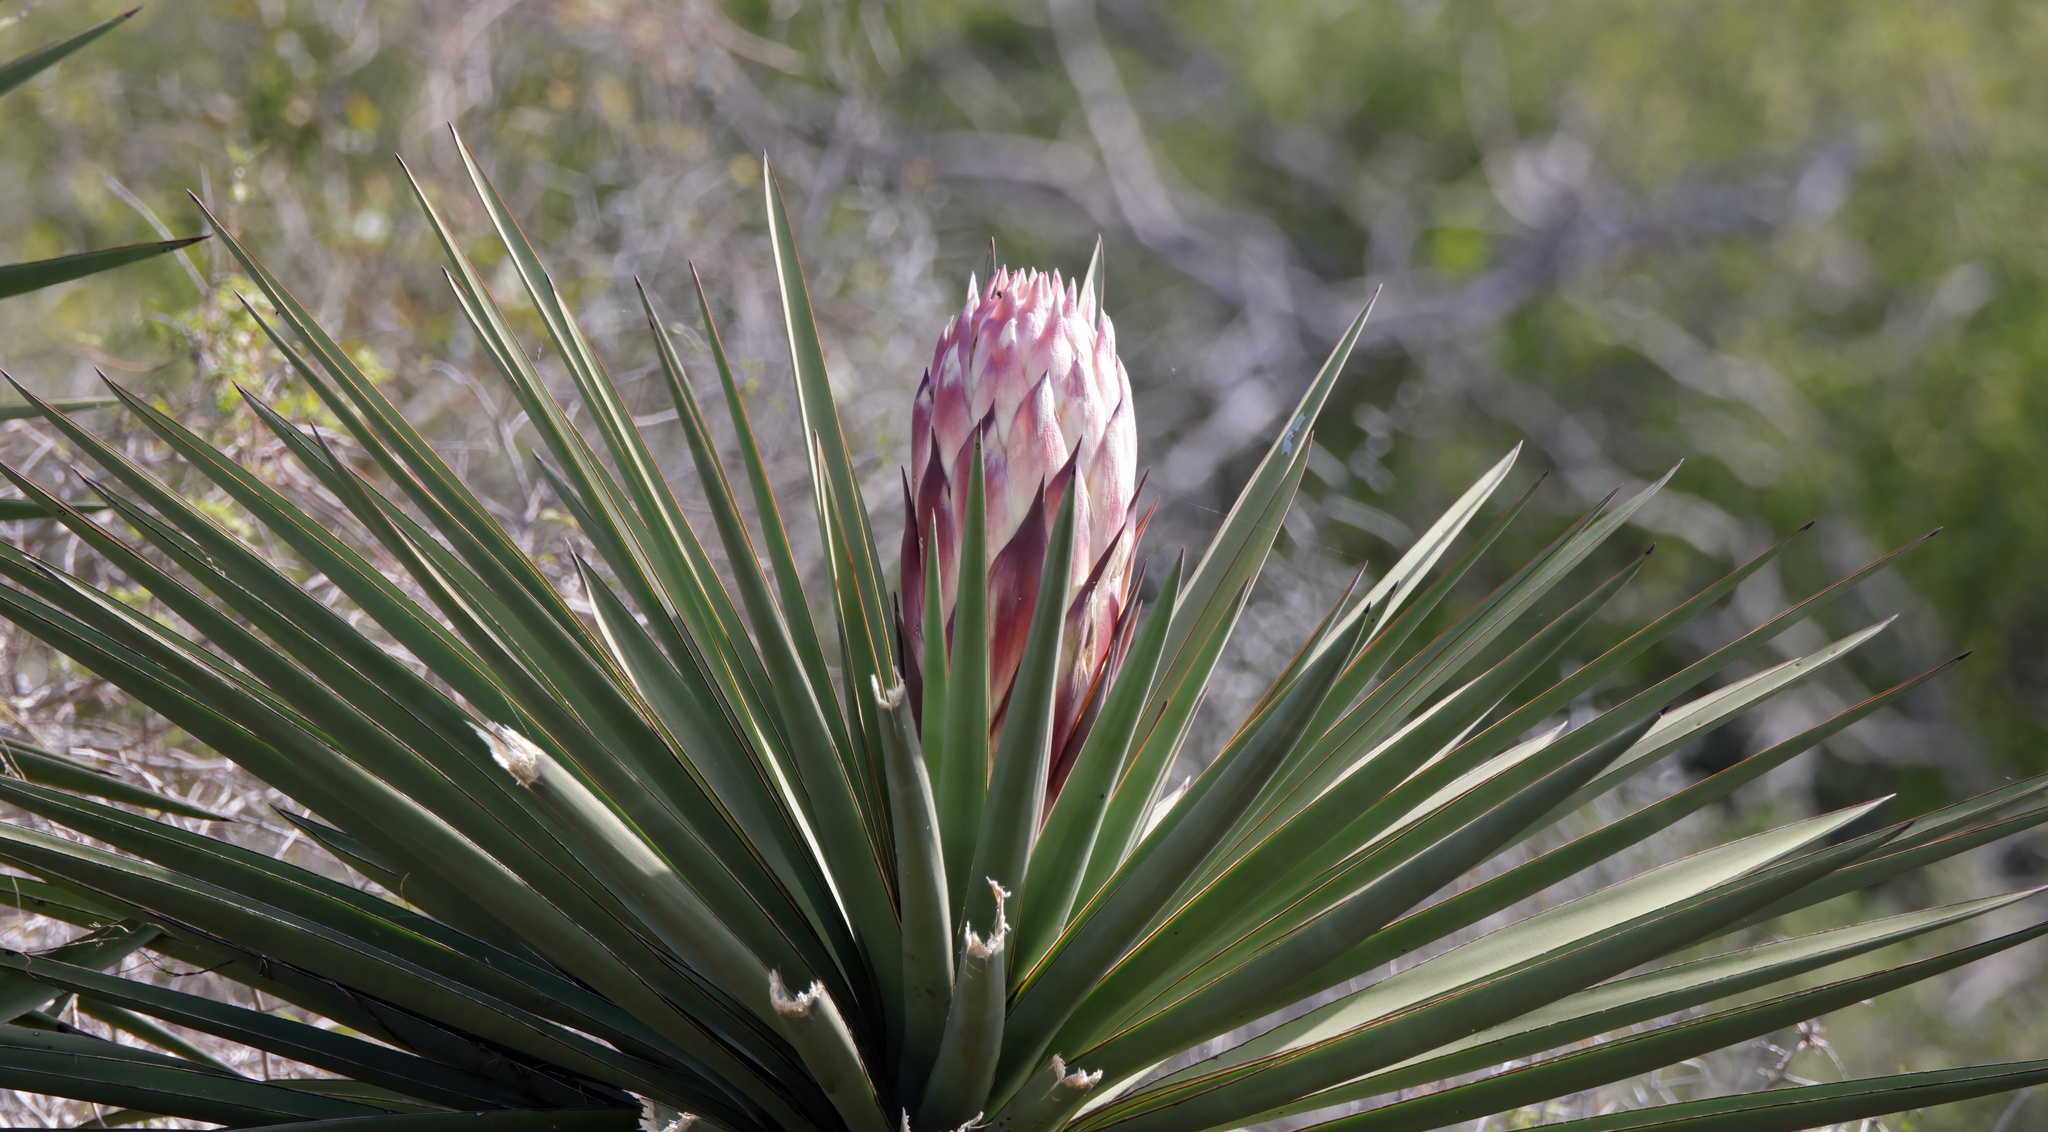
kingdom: Plantae
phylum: Tracheophyta
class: Liliopsida
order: Asparagales
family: Asparagaceae
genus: Yucca
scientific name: Yucca treculiana
